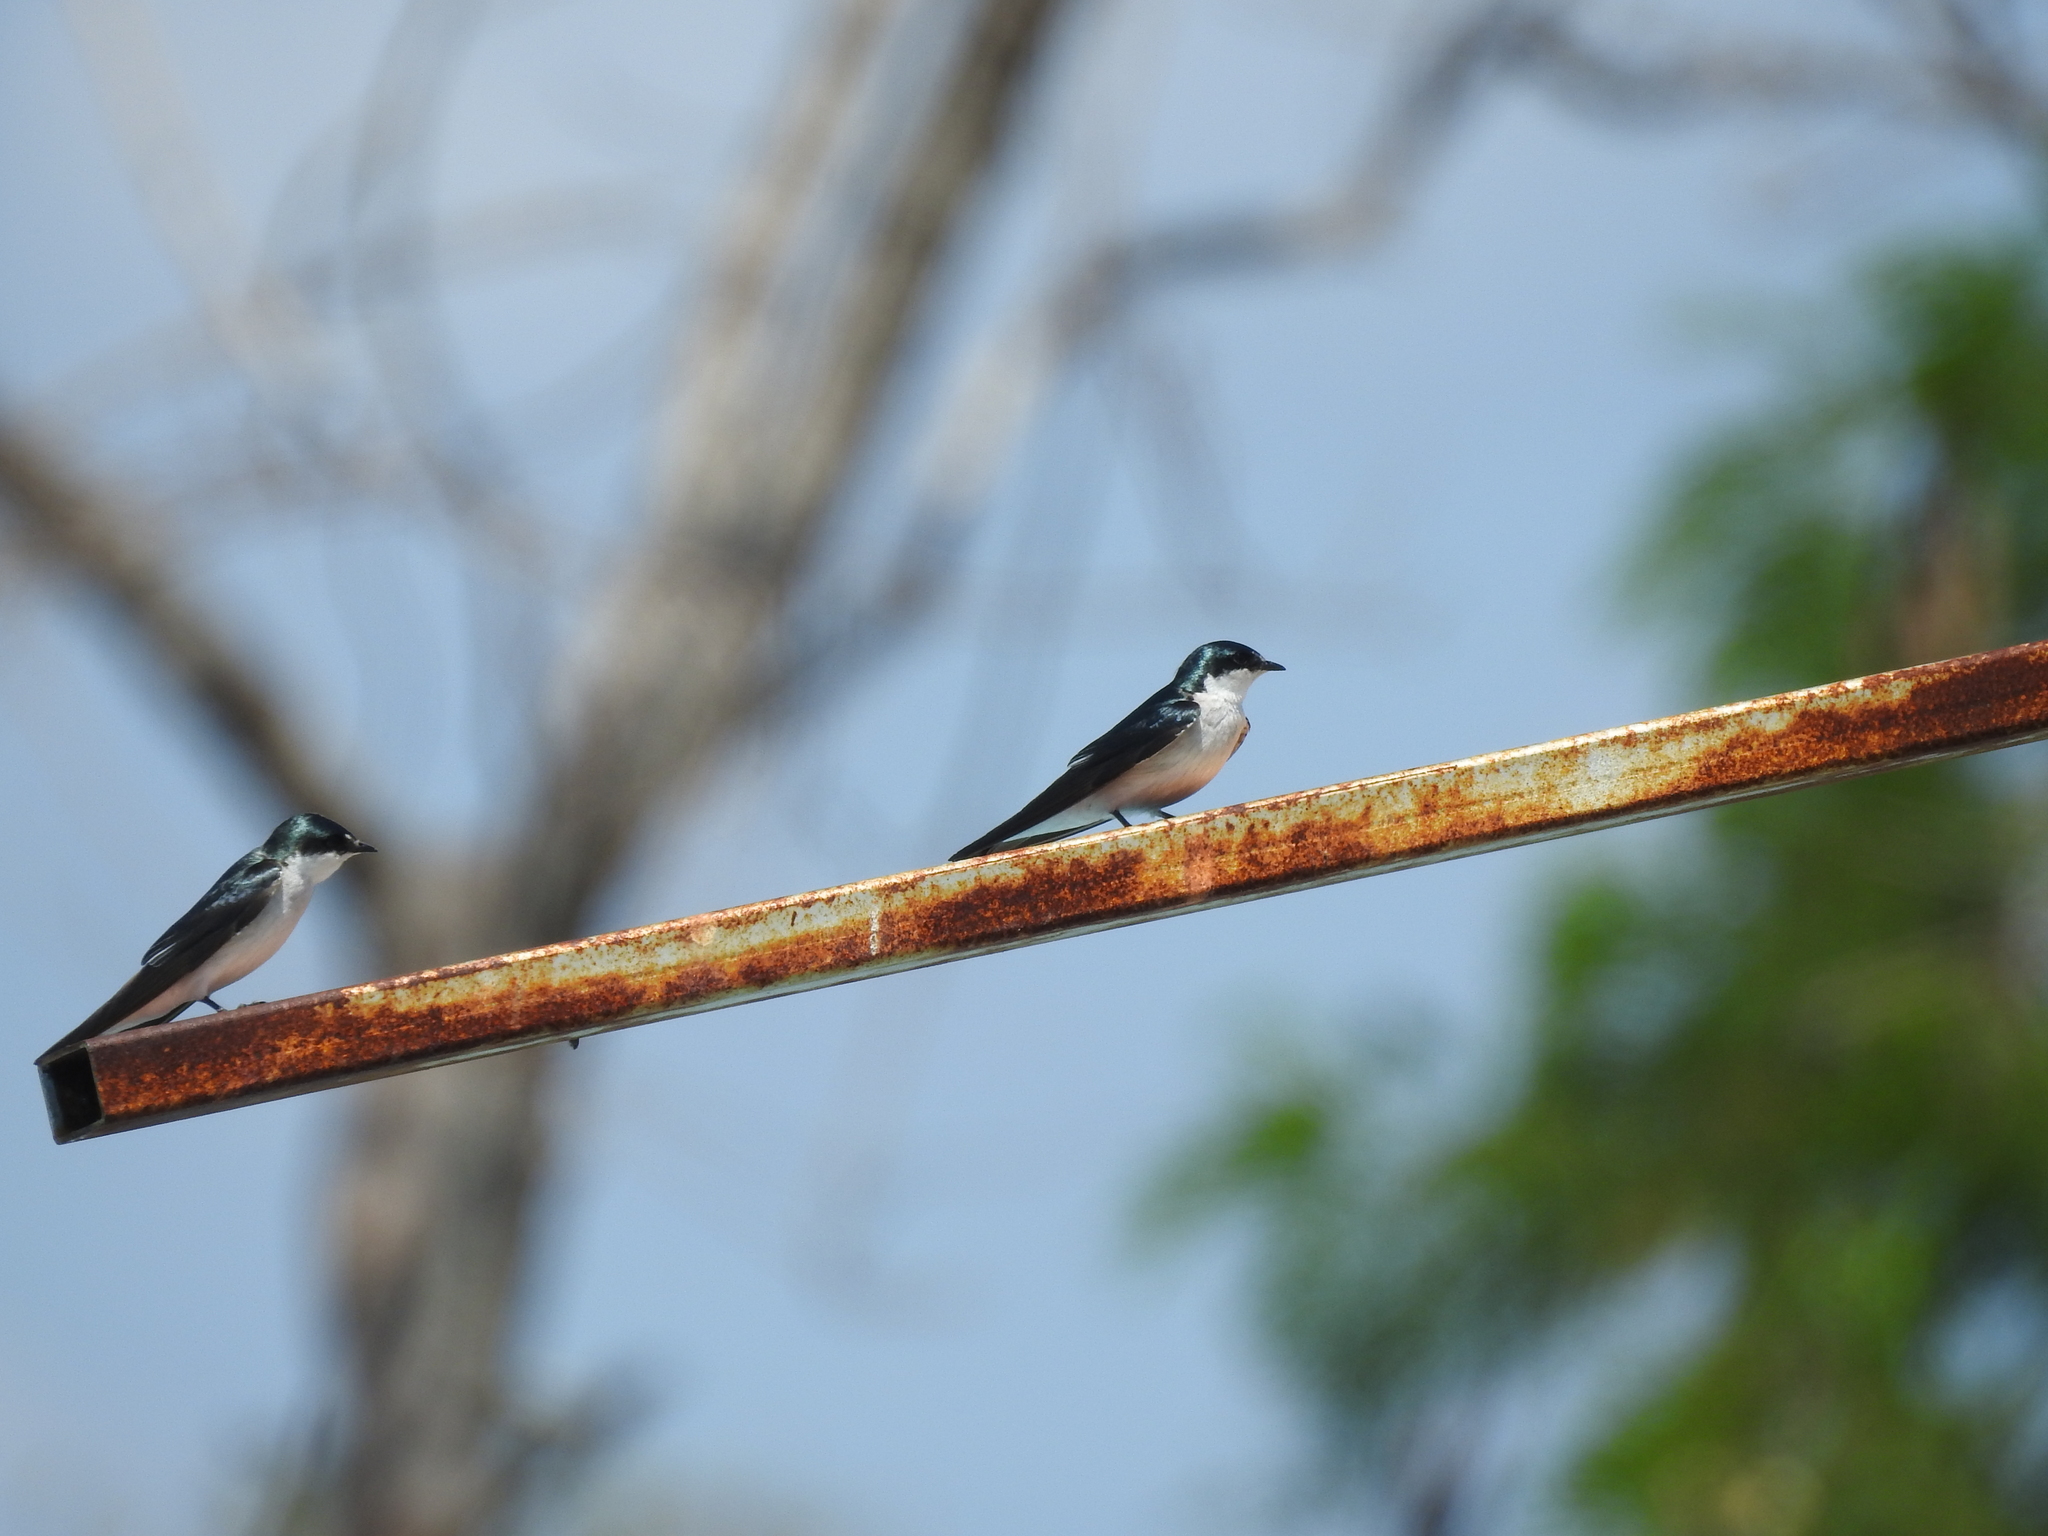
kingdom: Animalia
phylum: Chordata
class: Aves
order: Passeriformes
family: Hirundinidae
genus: Tachycineta
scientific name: Tachycineta albilinea
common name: Mangrove swallow
